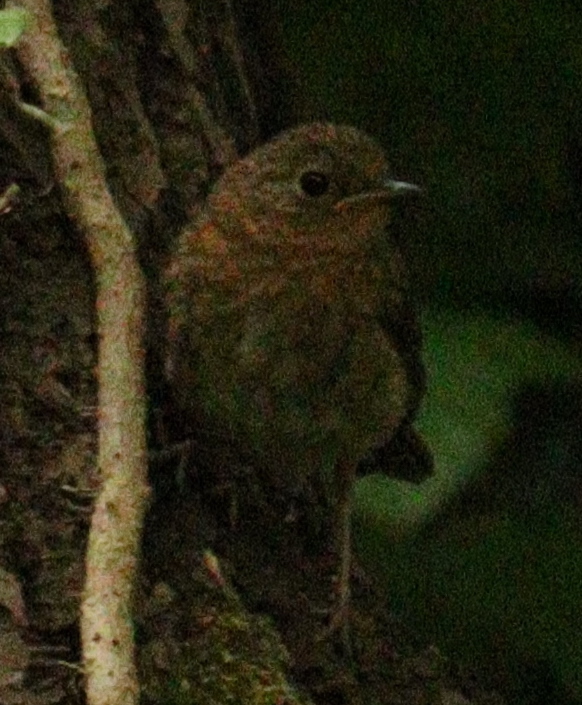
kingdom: Animalia
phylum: Chordata
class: Aves
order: Passeriformes
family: Muscicapidae
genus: Erithacus
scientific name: Erithacus rubecula
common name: European robin
